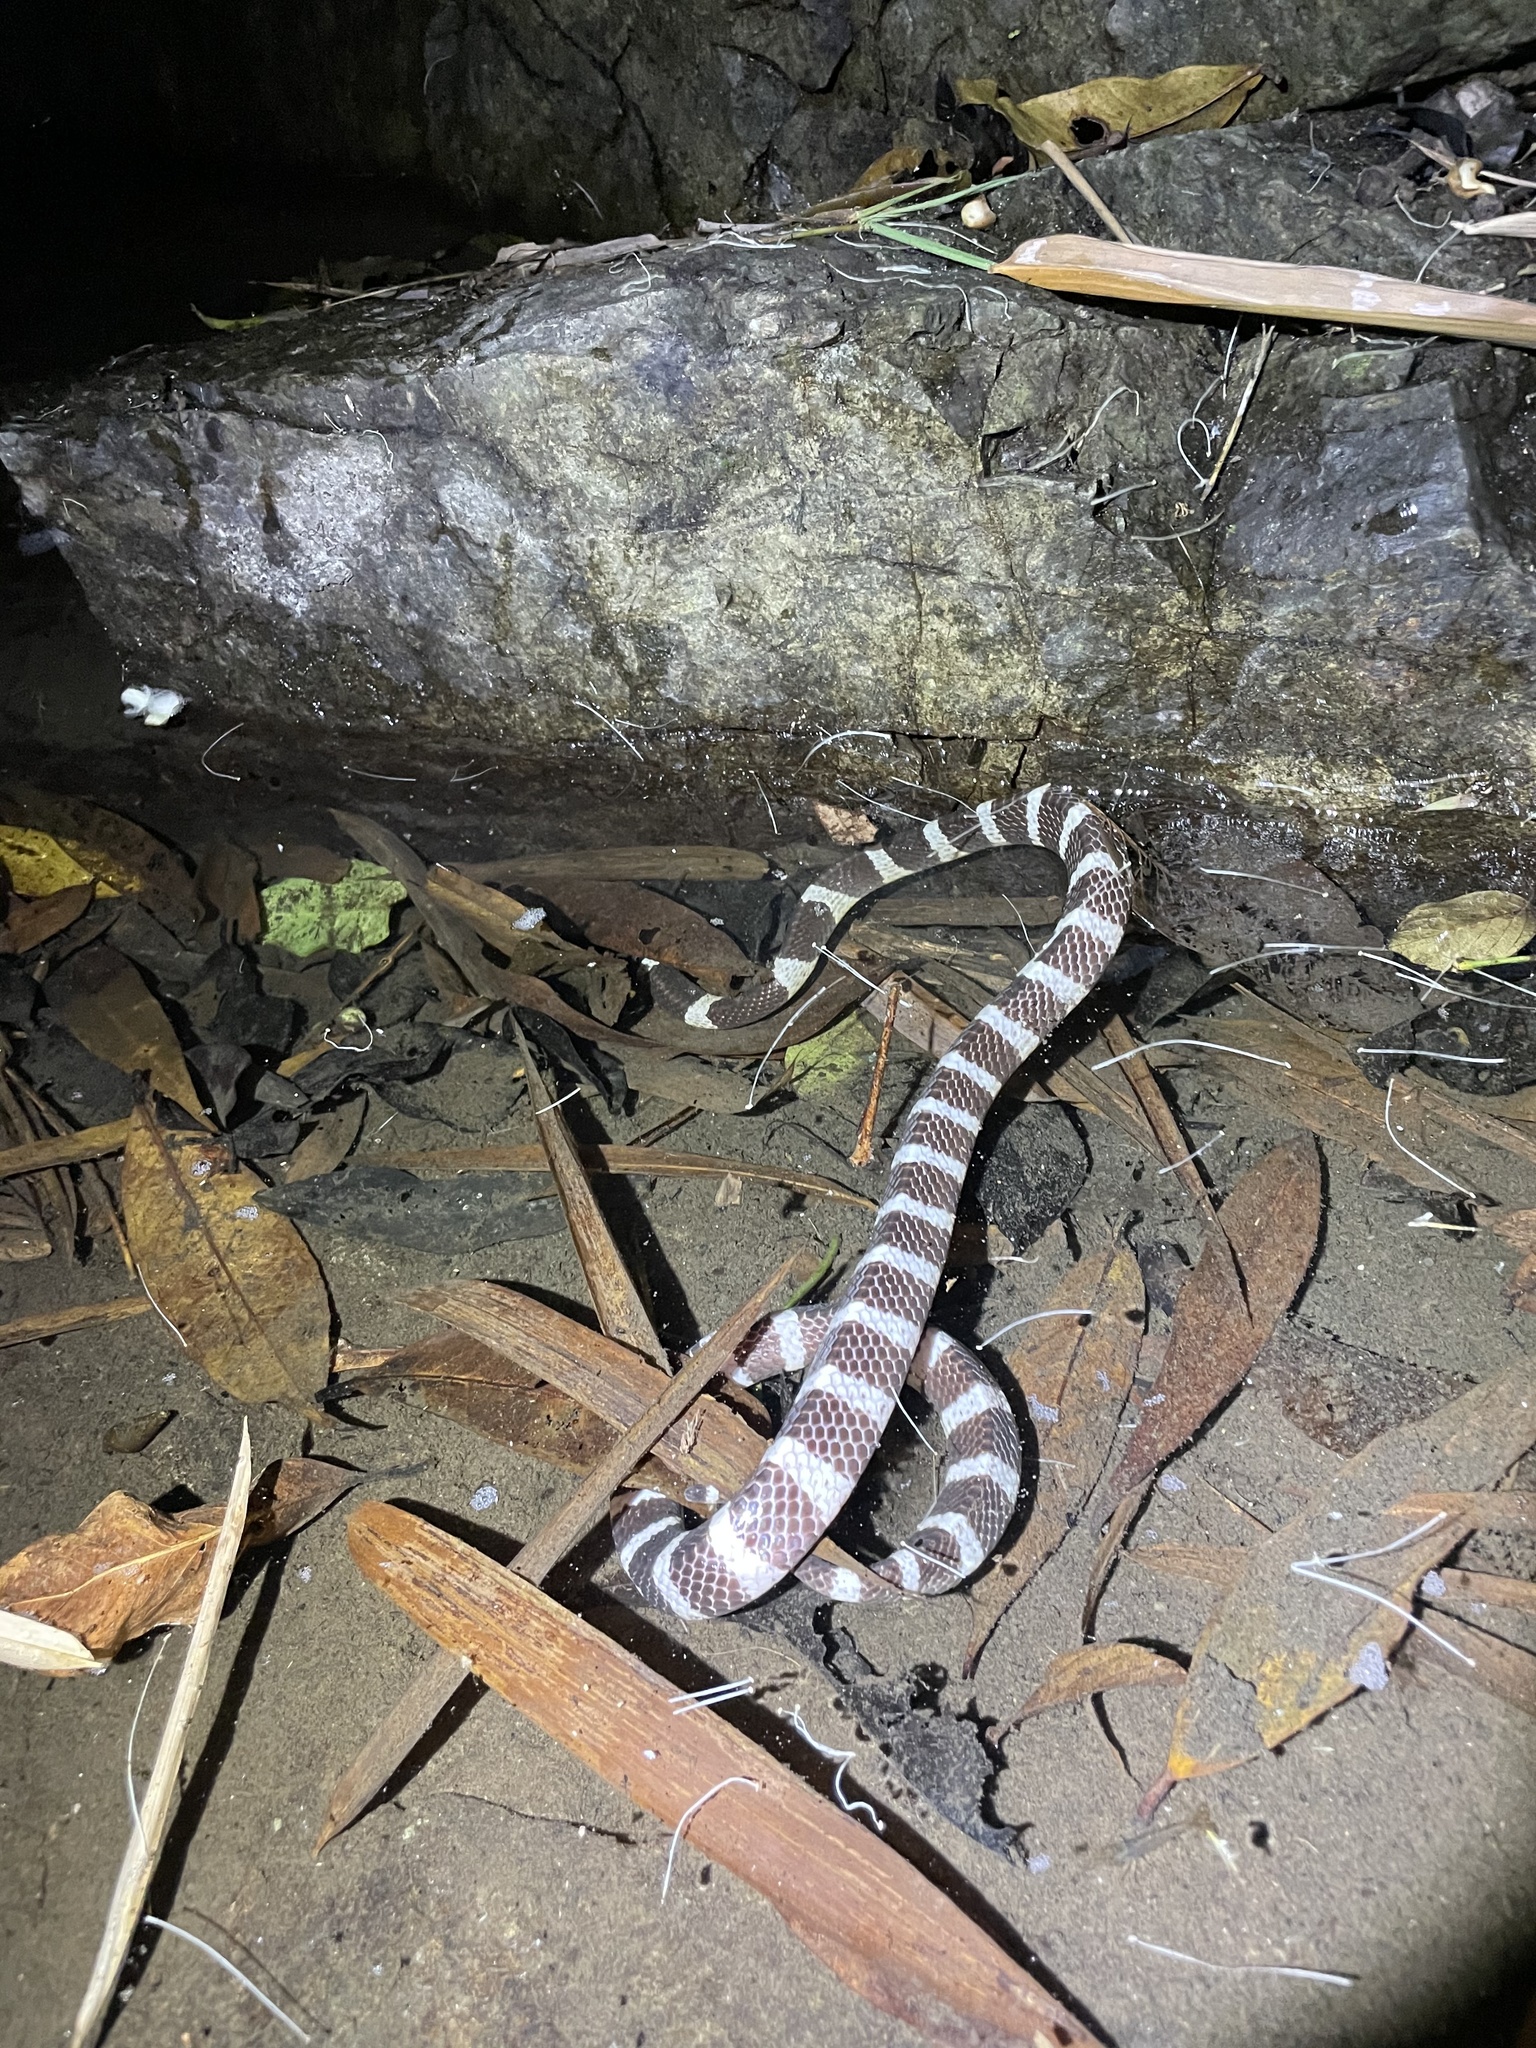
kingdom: Animalia
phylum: Chordata
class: Squamata
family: Elapidae
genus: Bungarus
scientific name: Bungarus multicinctus
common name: Many-banded krait
